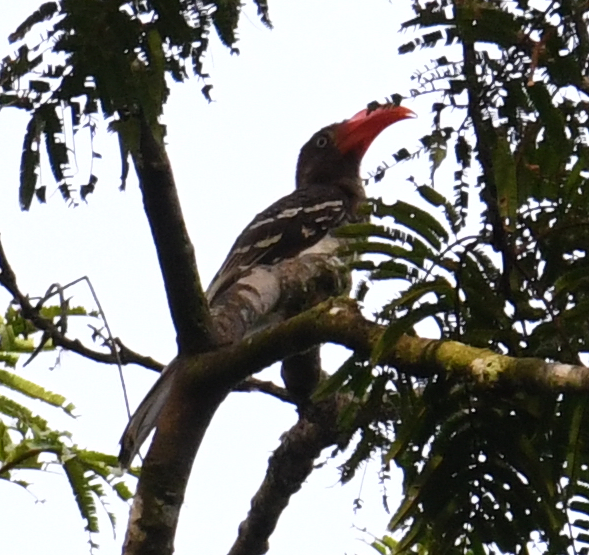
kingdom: Animalia
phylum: Chordata
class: Aves
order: Bucerotiformes
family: Bucerotidae
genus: Lophoceros
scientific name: Lophoceros camurus
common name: Red-billed dwarf hornbill
